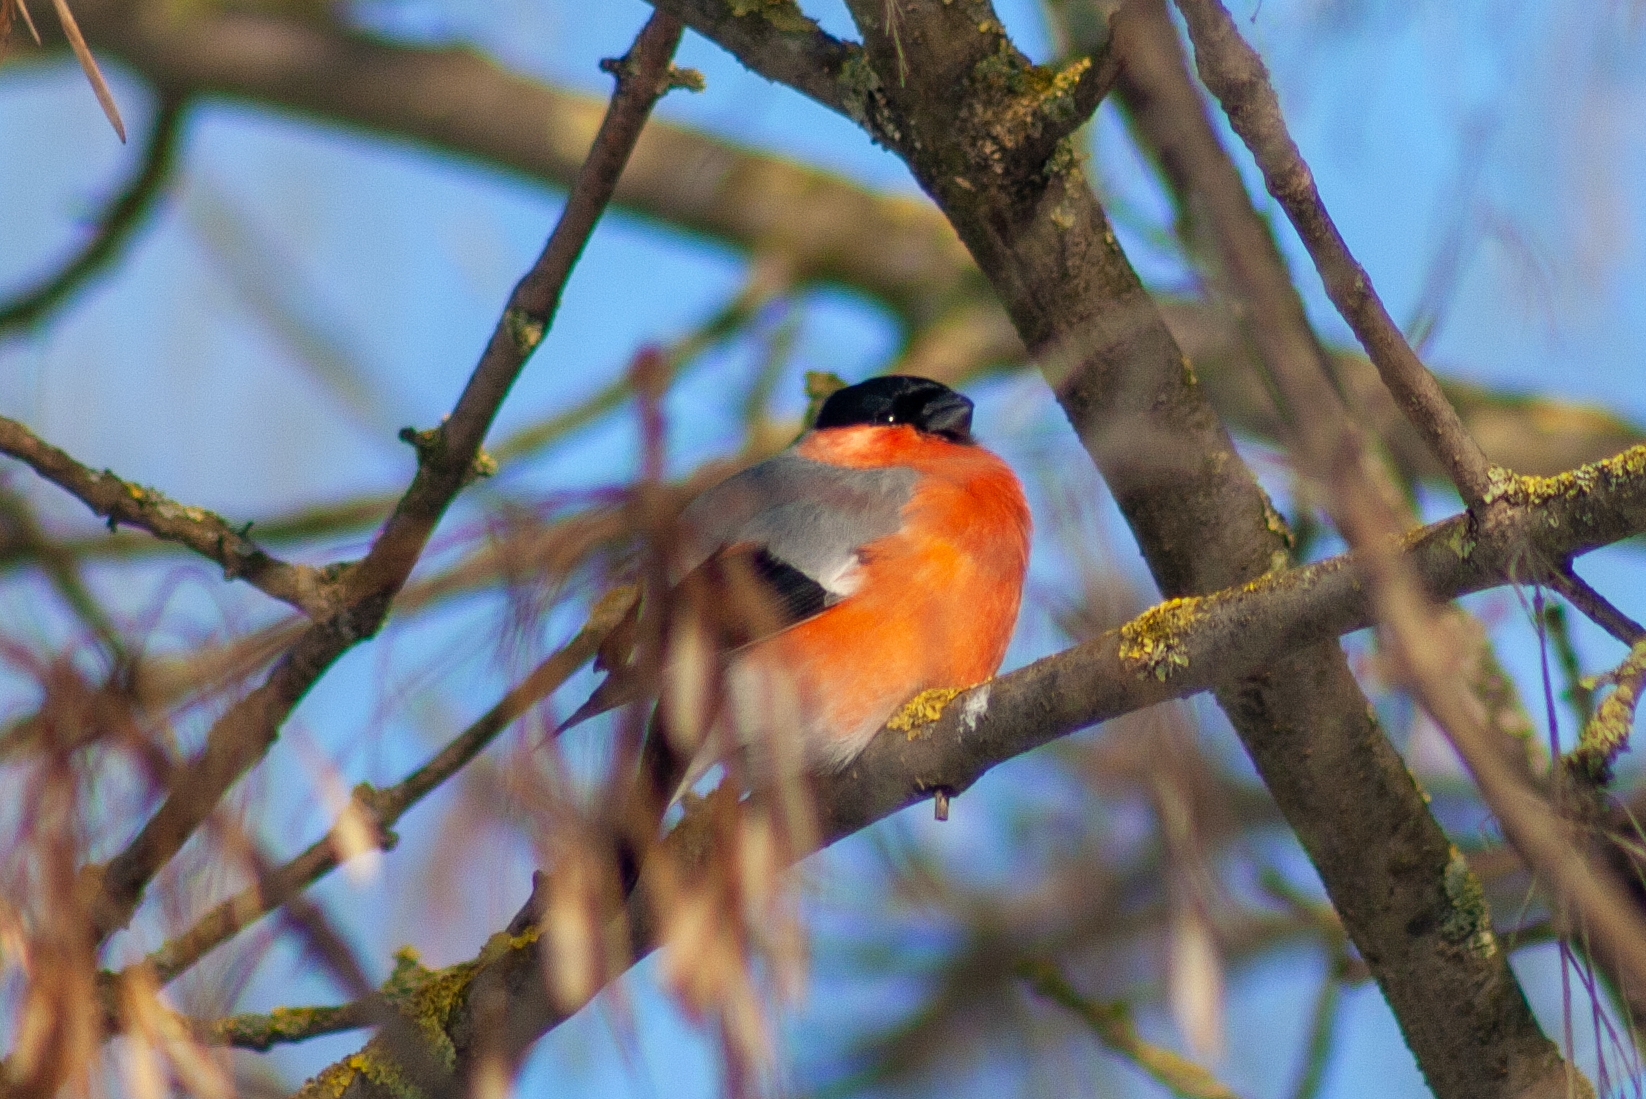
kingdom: Animalia
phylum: Chordata
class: Aves
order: Passeriformes
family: Fringillidae
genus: Pyrrhula
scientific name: Pyrrhula pyrrhula
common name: Eurasian bullfinch
